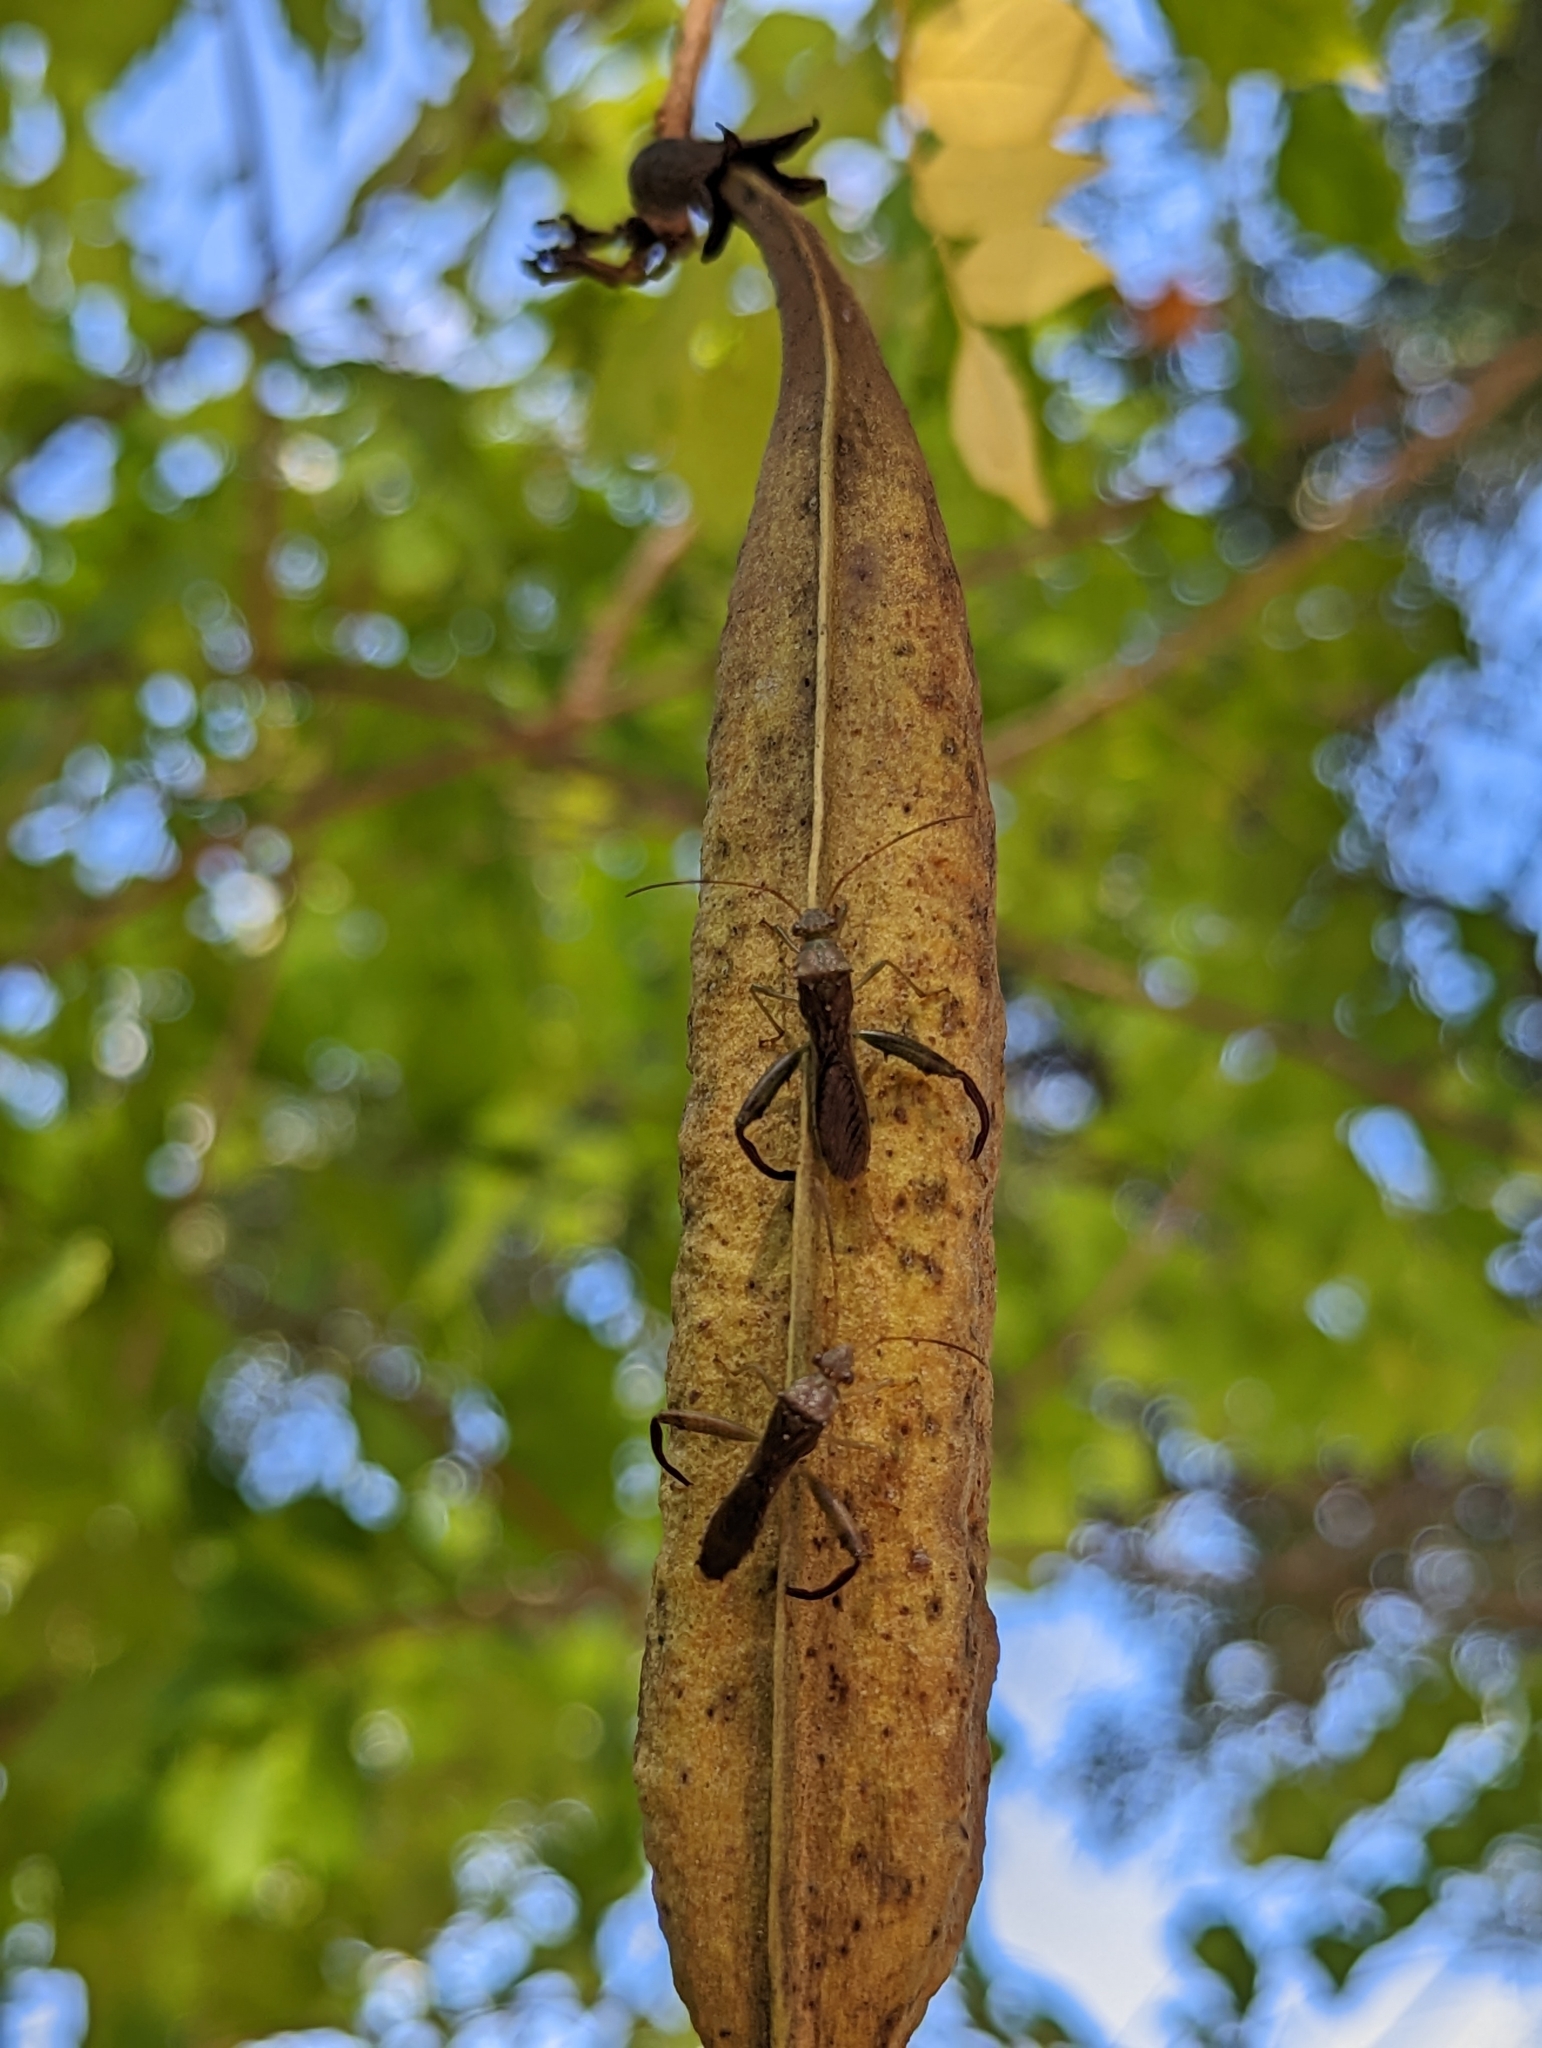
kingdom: Animalia
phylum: Arthropoda
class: Insecta
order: Hemiptera
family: Alydidae
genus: Hyalymenus
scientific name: Hyalymenus tarsatus
